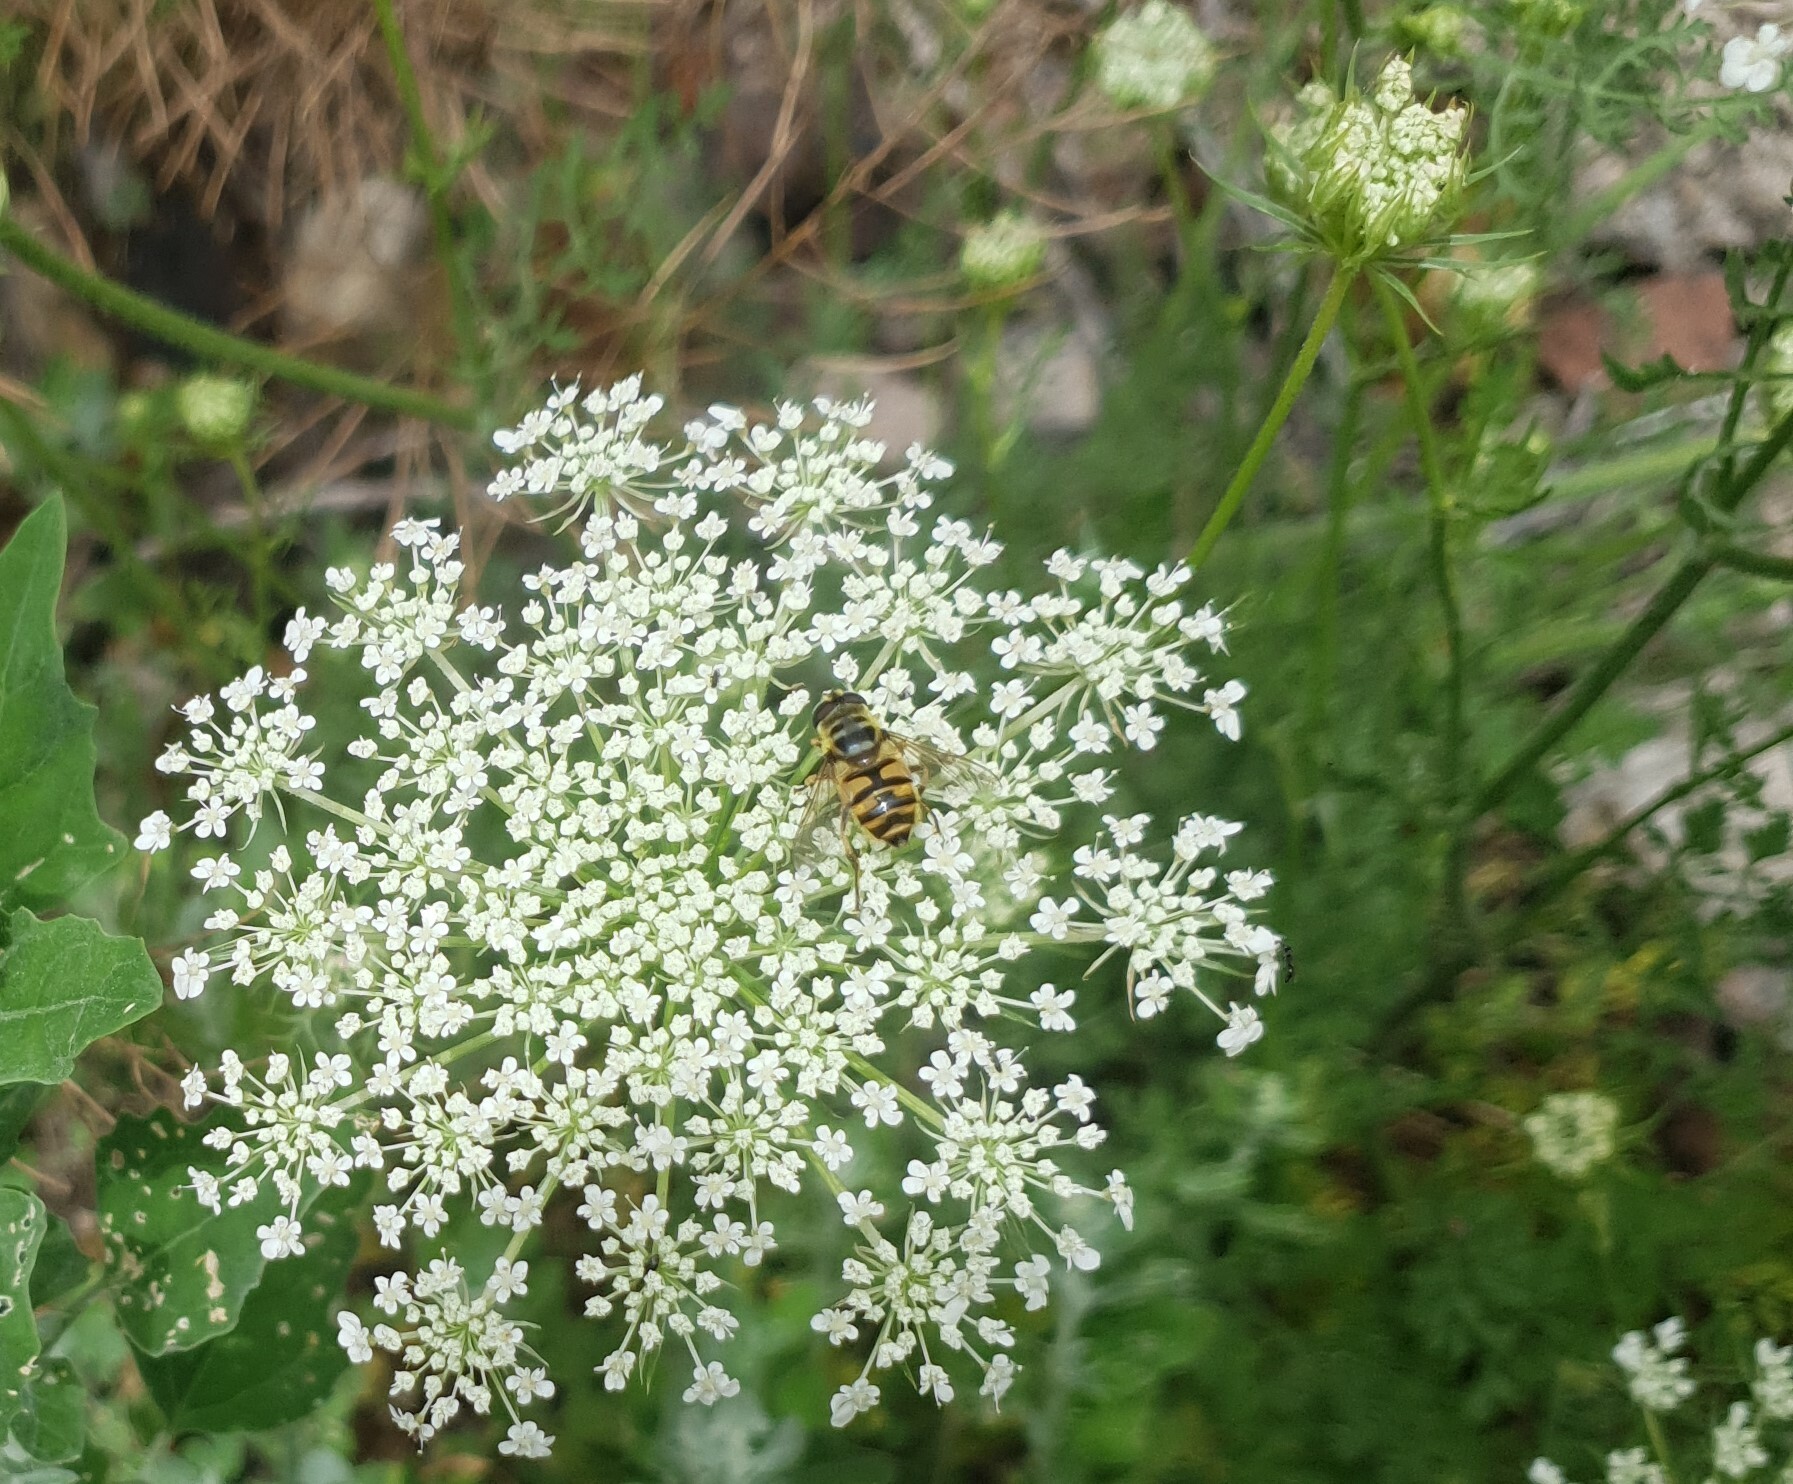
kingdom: Animalia
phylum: Arthropoda
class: Insecta
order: Diptera
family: Syrphidae
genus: Myathropa
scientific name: Myathropa florea
